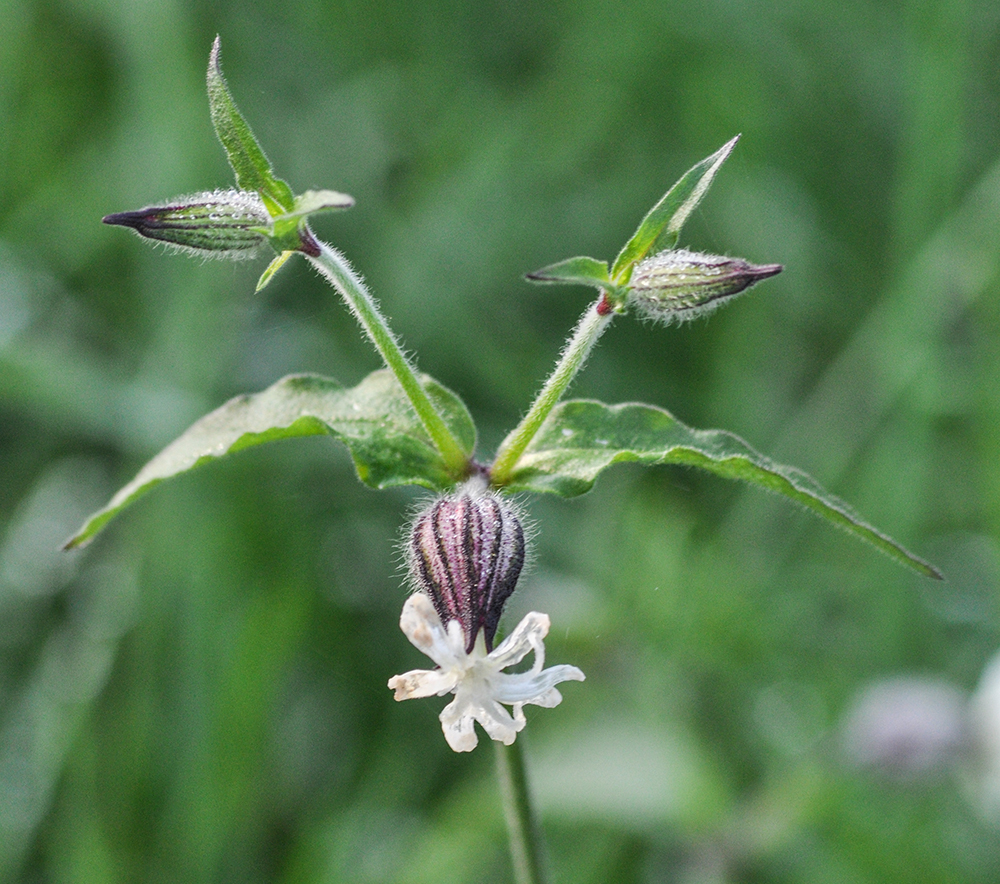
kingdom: Plantae
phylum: Tracheophyta
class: Magnoliopsida
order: Caryophyllales
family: Caryophyllaceae
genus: Silene
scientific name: Silene latifolia
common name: White campion
